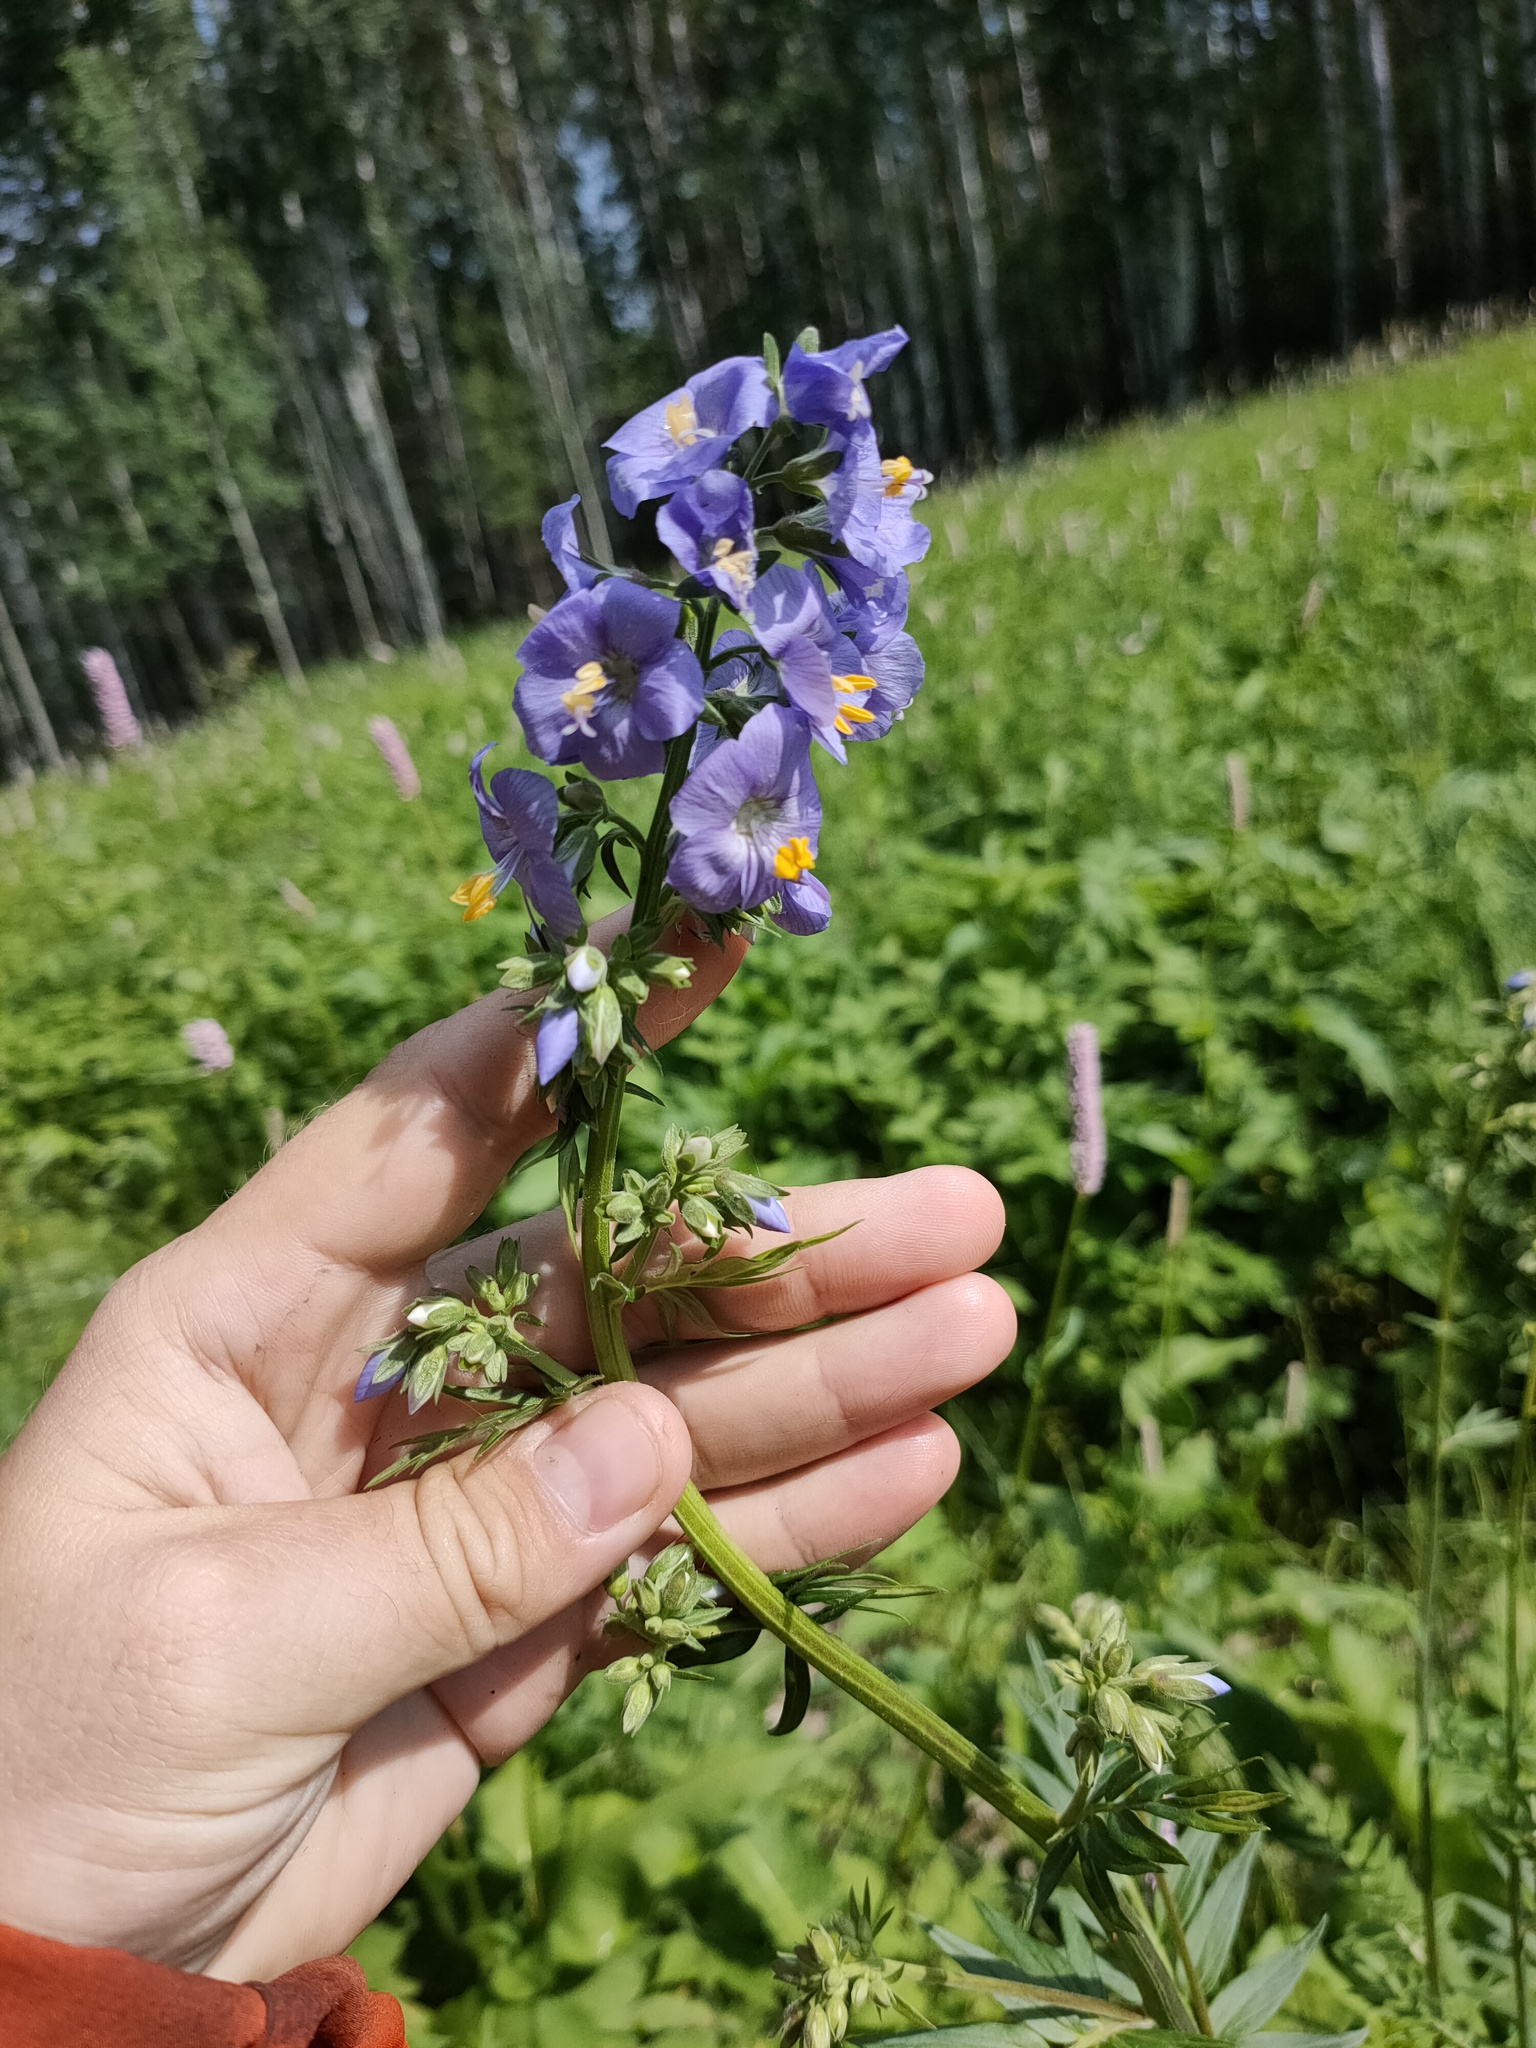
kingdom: Plantae
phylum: Tracheophyta
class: Magnoliopsida
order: Ericales
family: Polemoniaceae
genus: Polemonium
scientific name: Polemonium caeruleum
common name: Jacob's-ladder
